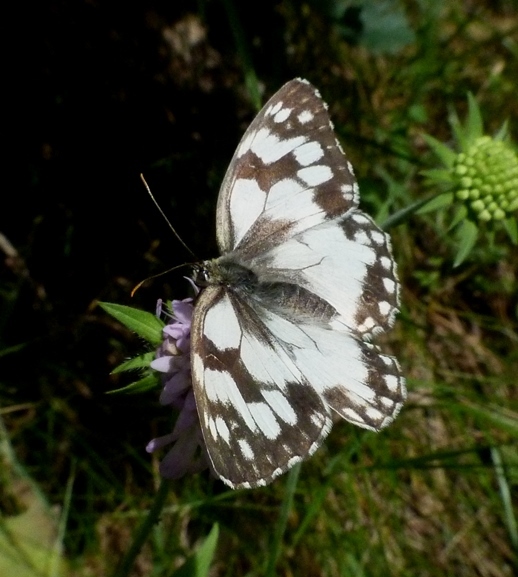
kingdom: Animalia
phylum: Arthropoda
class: Insecta
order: Lepidoptera
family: Nymphalidae
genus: Melanargia
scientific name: Melanargia lachesis
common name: Iberian marbled white
